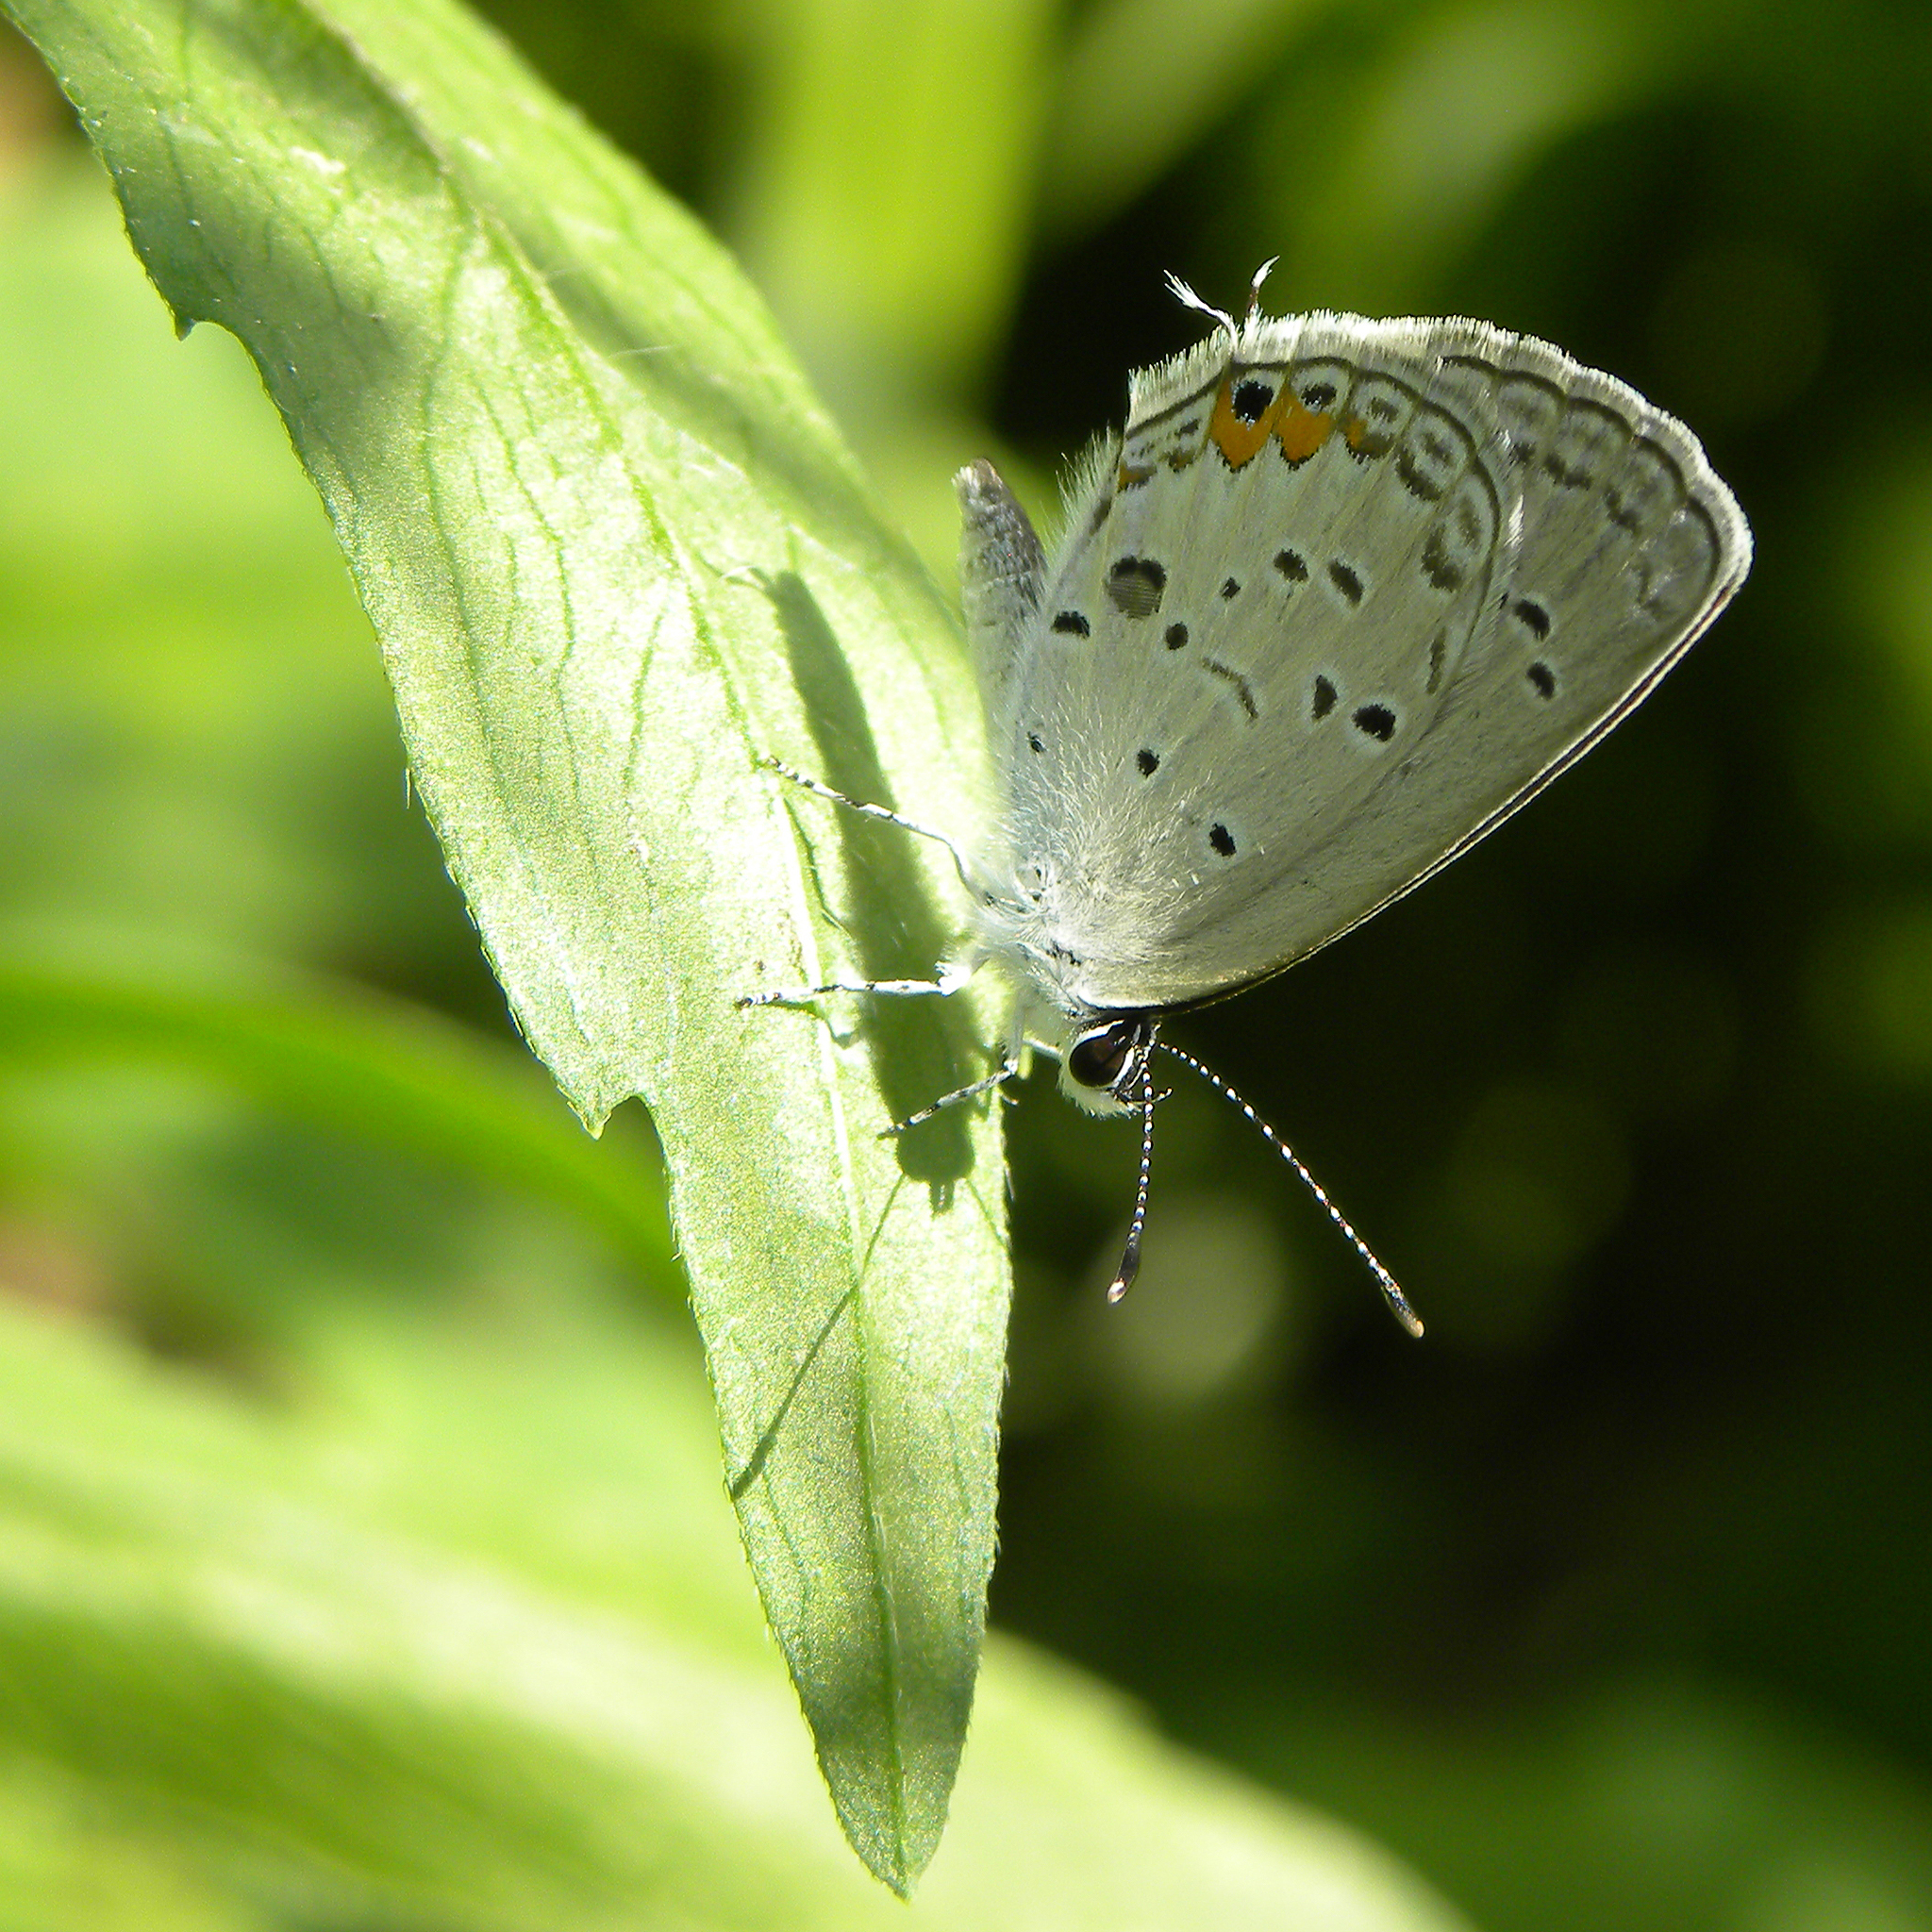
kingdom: Animalia
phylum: Arthropoda
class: Insecta
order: Lepidoptera
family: Lycaenidae
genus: Elkalyce
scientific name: Elkalyce comyntas
